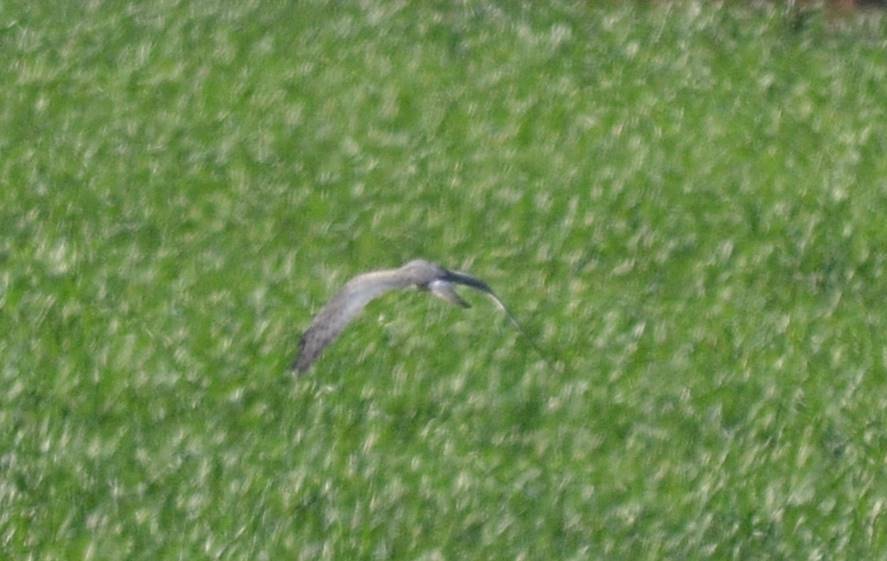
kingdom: Animalia
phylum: Chordata
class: Aves
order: Accipitriformes
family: Accipitridae
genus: Circus
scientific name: Circus pygargus
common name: Montagu's harrier
